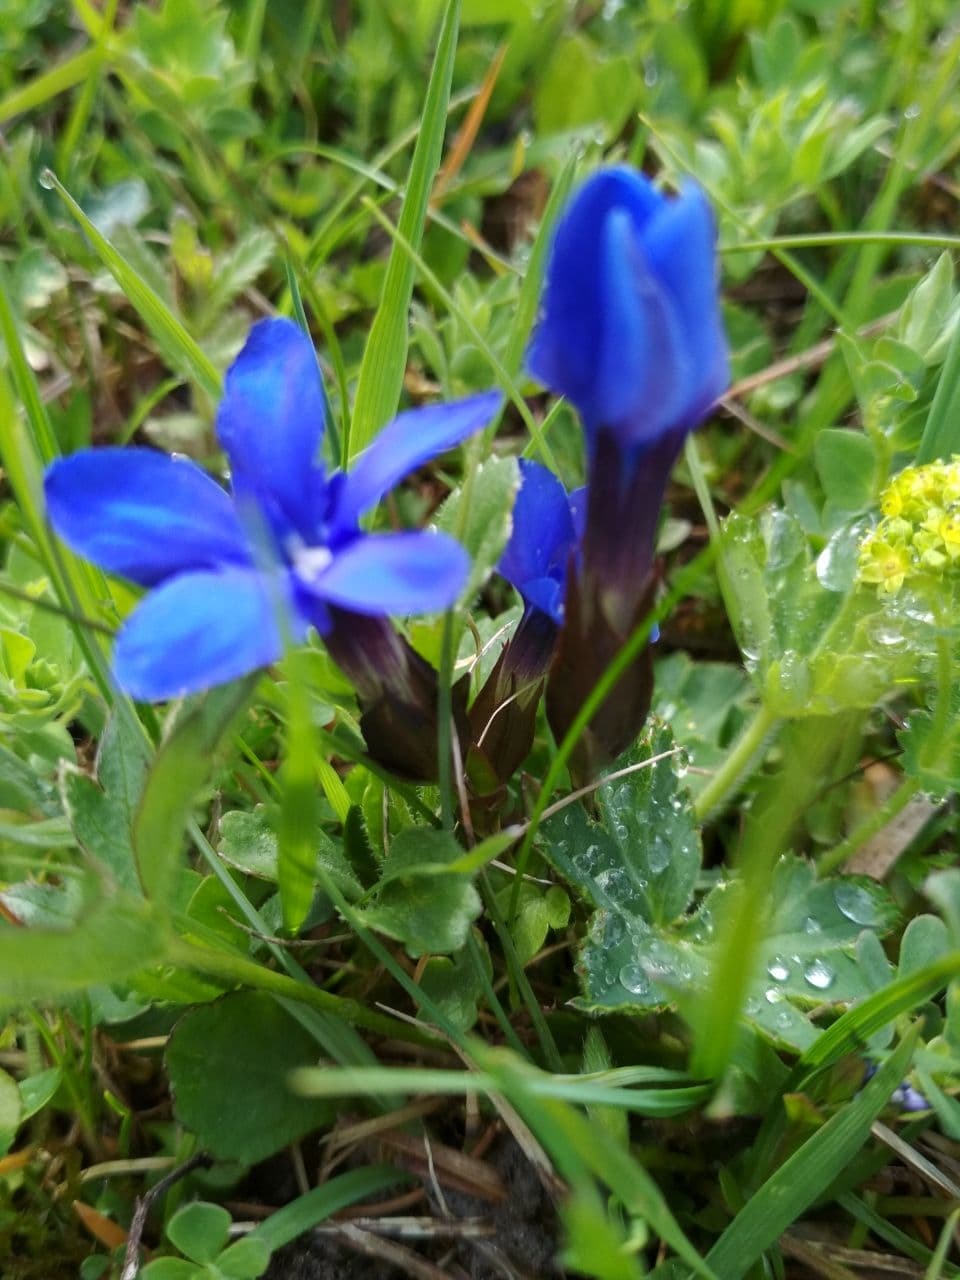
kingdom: Plantae
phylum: Tracheophyta
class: Magnoliopsida
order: Gentianales
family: Gentianaceae
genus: Gentiana
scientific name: Gentiana verna
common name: Spring gentian
